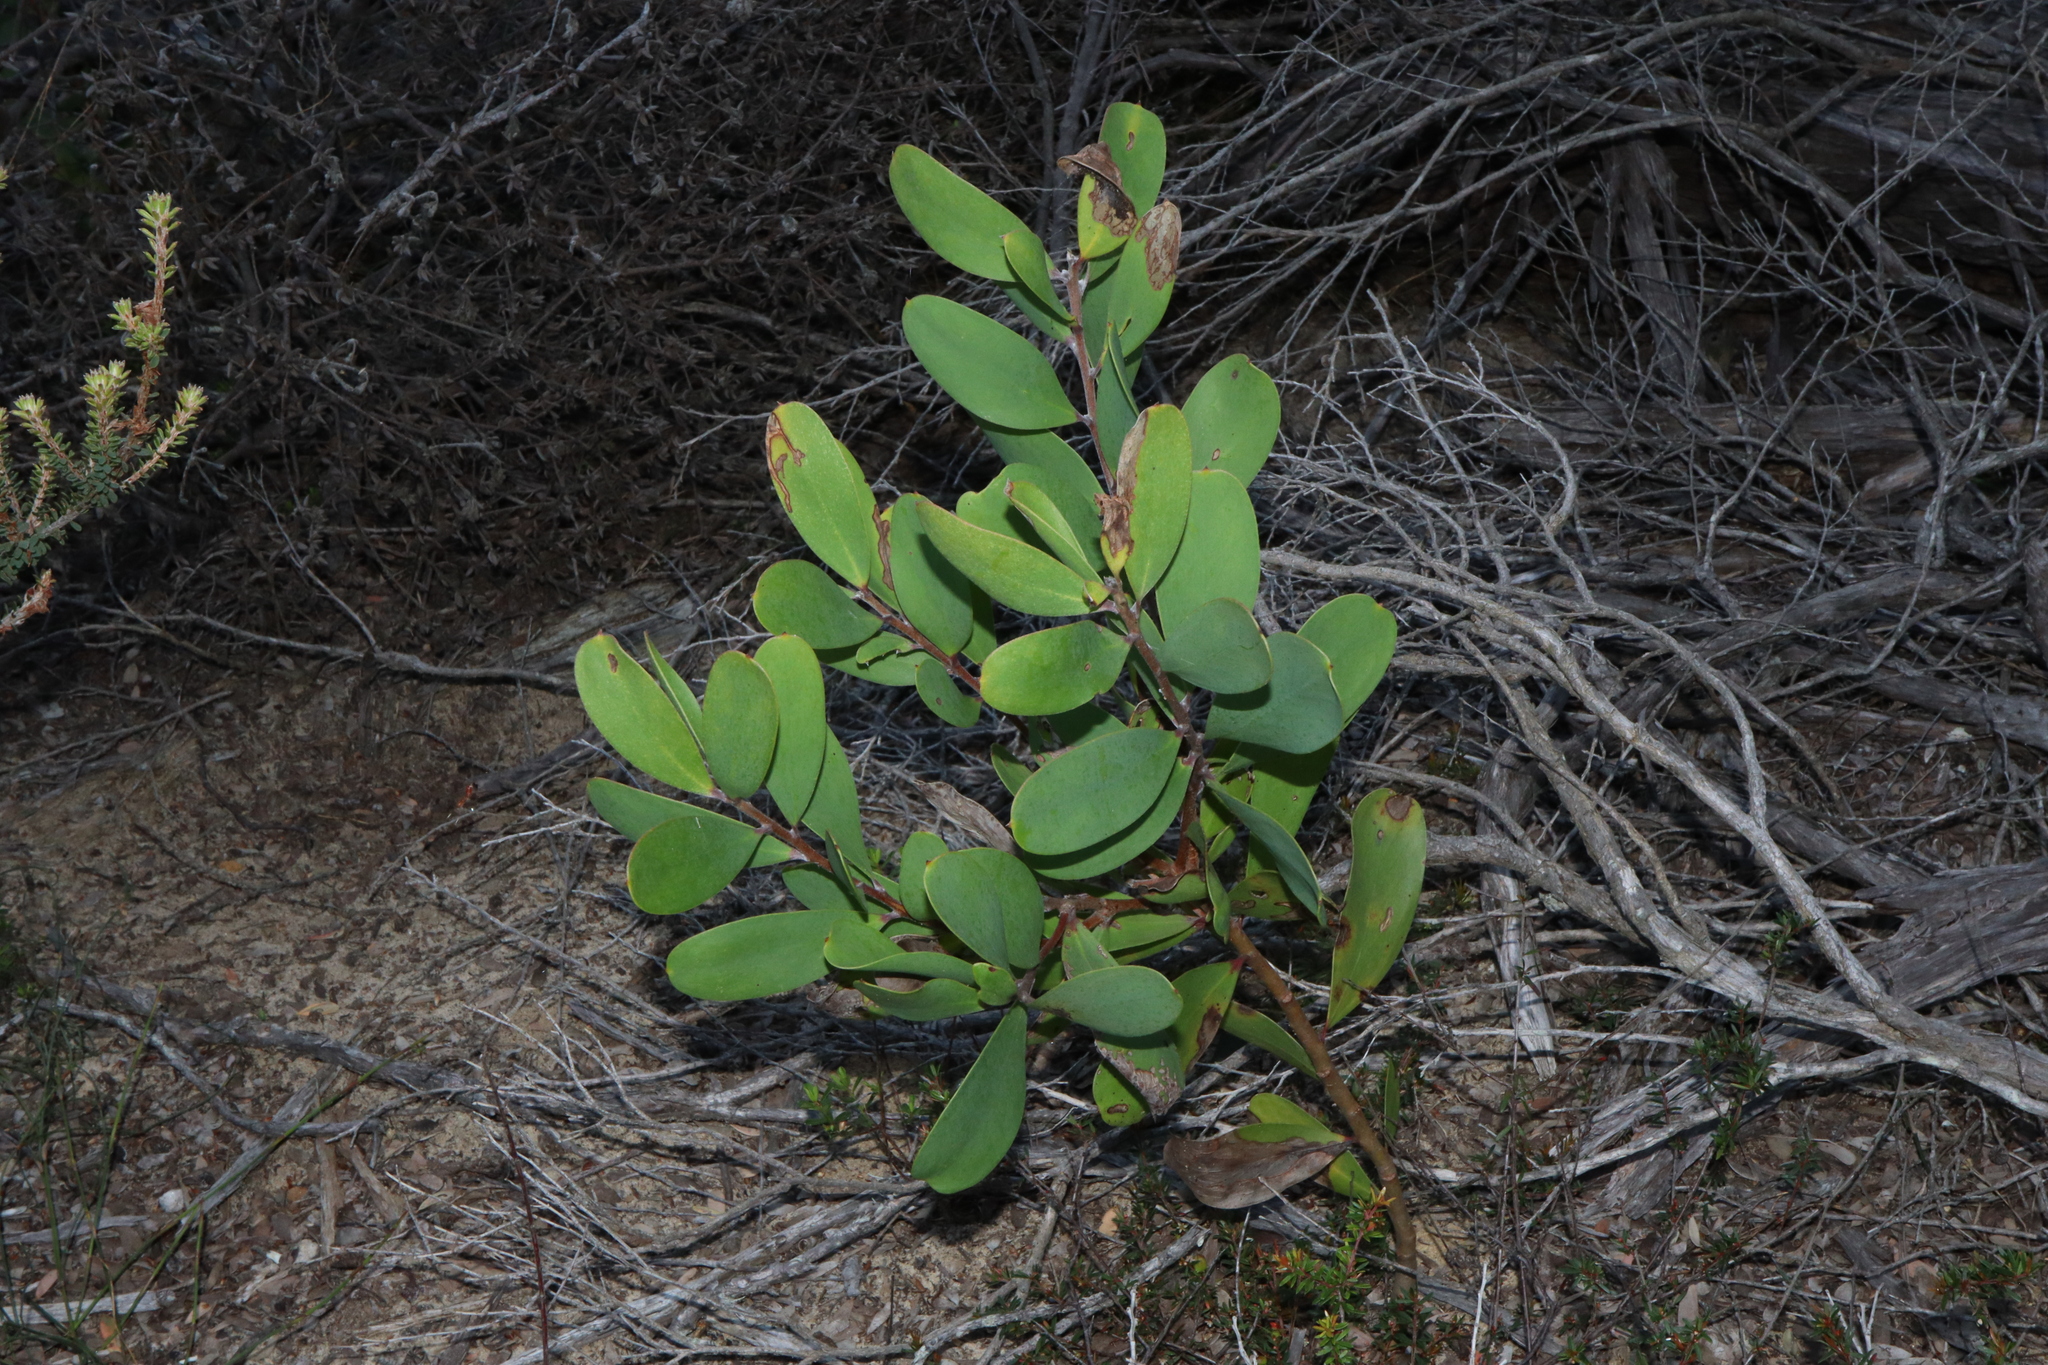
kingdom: Plantae
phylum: Tracheophyta
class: Magnoliopsida
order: Proteales
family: Proteaceae
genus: Persoonia
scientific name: Persoonia levis
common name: Smooth geebung
